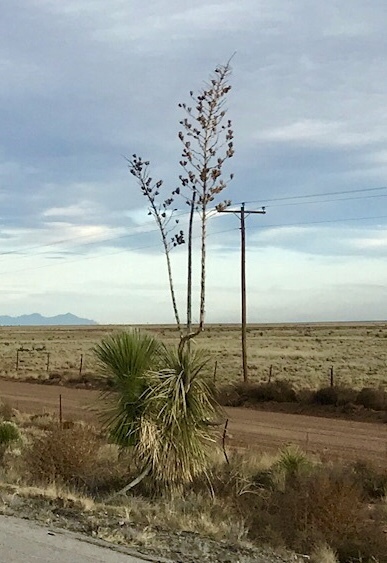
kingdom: Plantae
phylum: Tracheophyta
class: Liliopsida
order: Asparagales
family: Asparagaceae
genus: Yucca
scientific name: Yucca elata
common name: Palmella
